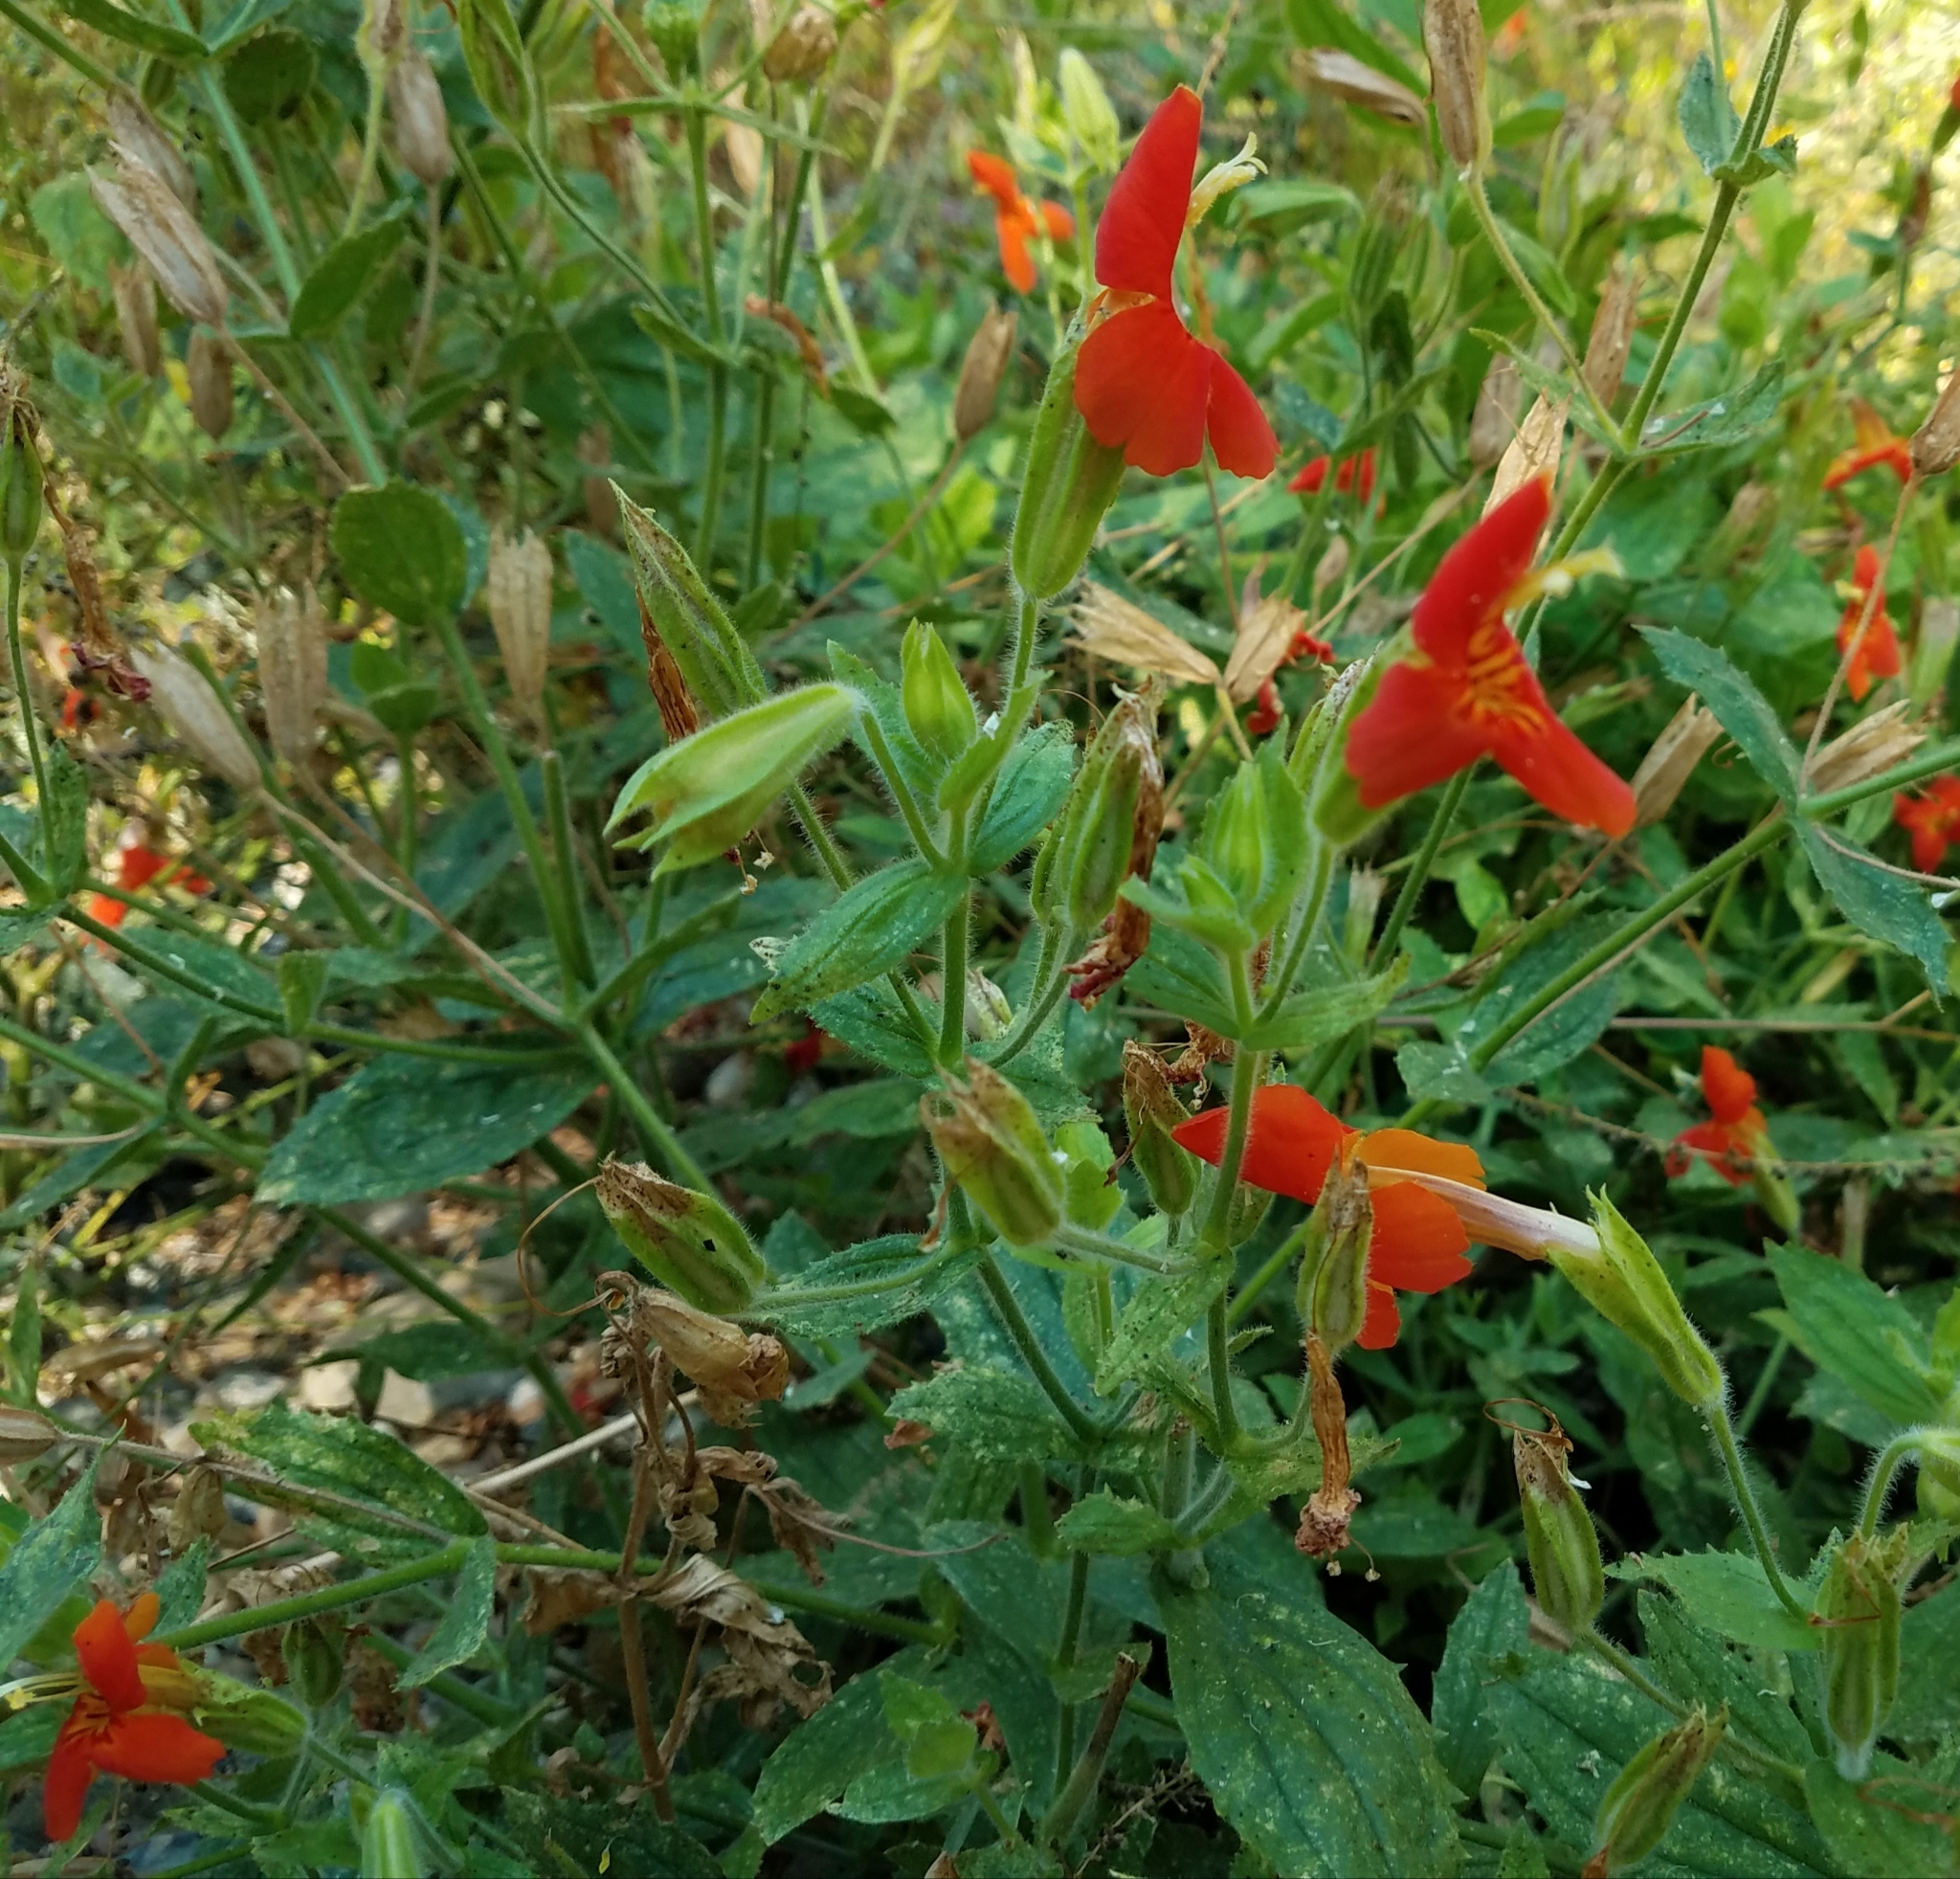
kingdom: Plantae
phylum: Tracheophyta
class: Magnoliopsida
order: Lamiales
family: Phrymaceae
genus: Erythranthe
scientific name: Erythranthe cardinalis
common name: Scarlet monkey-flower
